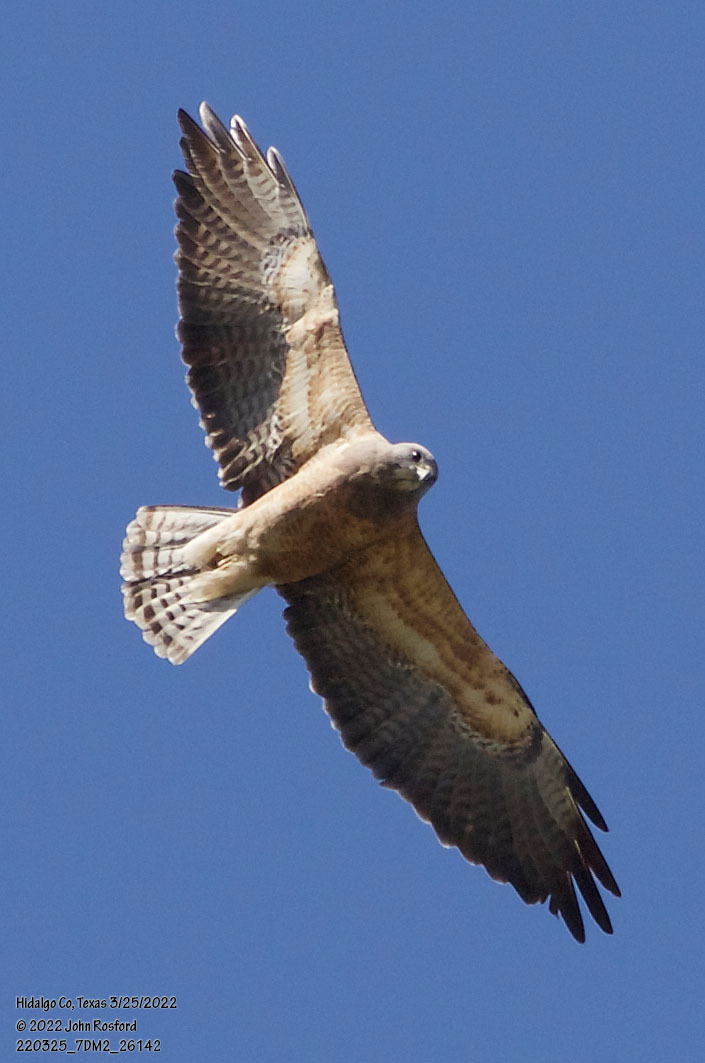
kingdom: Animalia
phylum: Chordata
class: Aves
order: Accipitriformes
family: Accipitridae
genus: Buteo
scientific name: Buteo swainsoni
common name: Swainson's hawk
